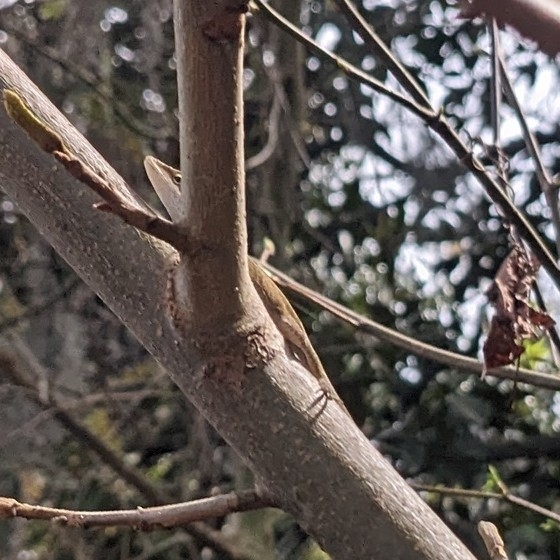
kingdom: Animalia
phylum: Chordata
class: Squamata
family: Dactyloidae
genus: Anolis
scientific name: Anolis carolinensis
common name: Green anole
